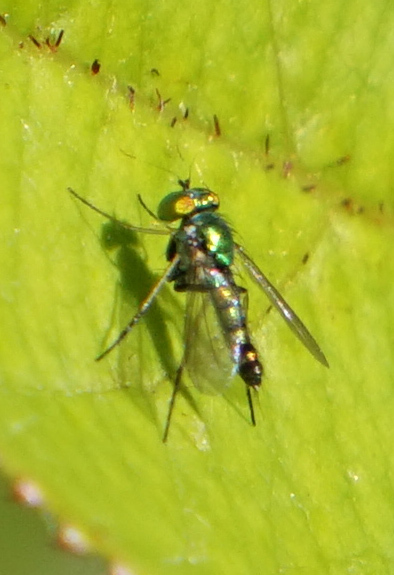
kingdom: Animalia
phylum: Arthropoda
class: Insecta
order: Diptera
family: Dolichopodidae
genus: Condylostylus
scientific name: Condylostylus caudatus
